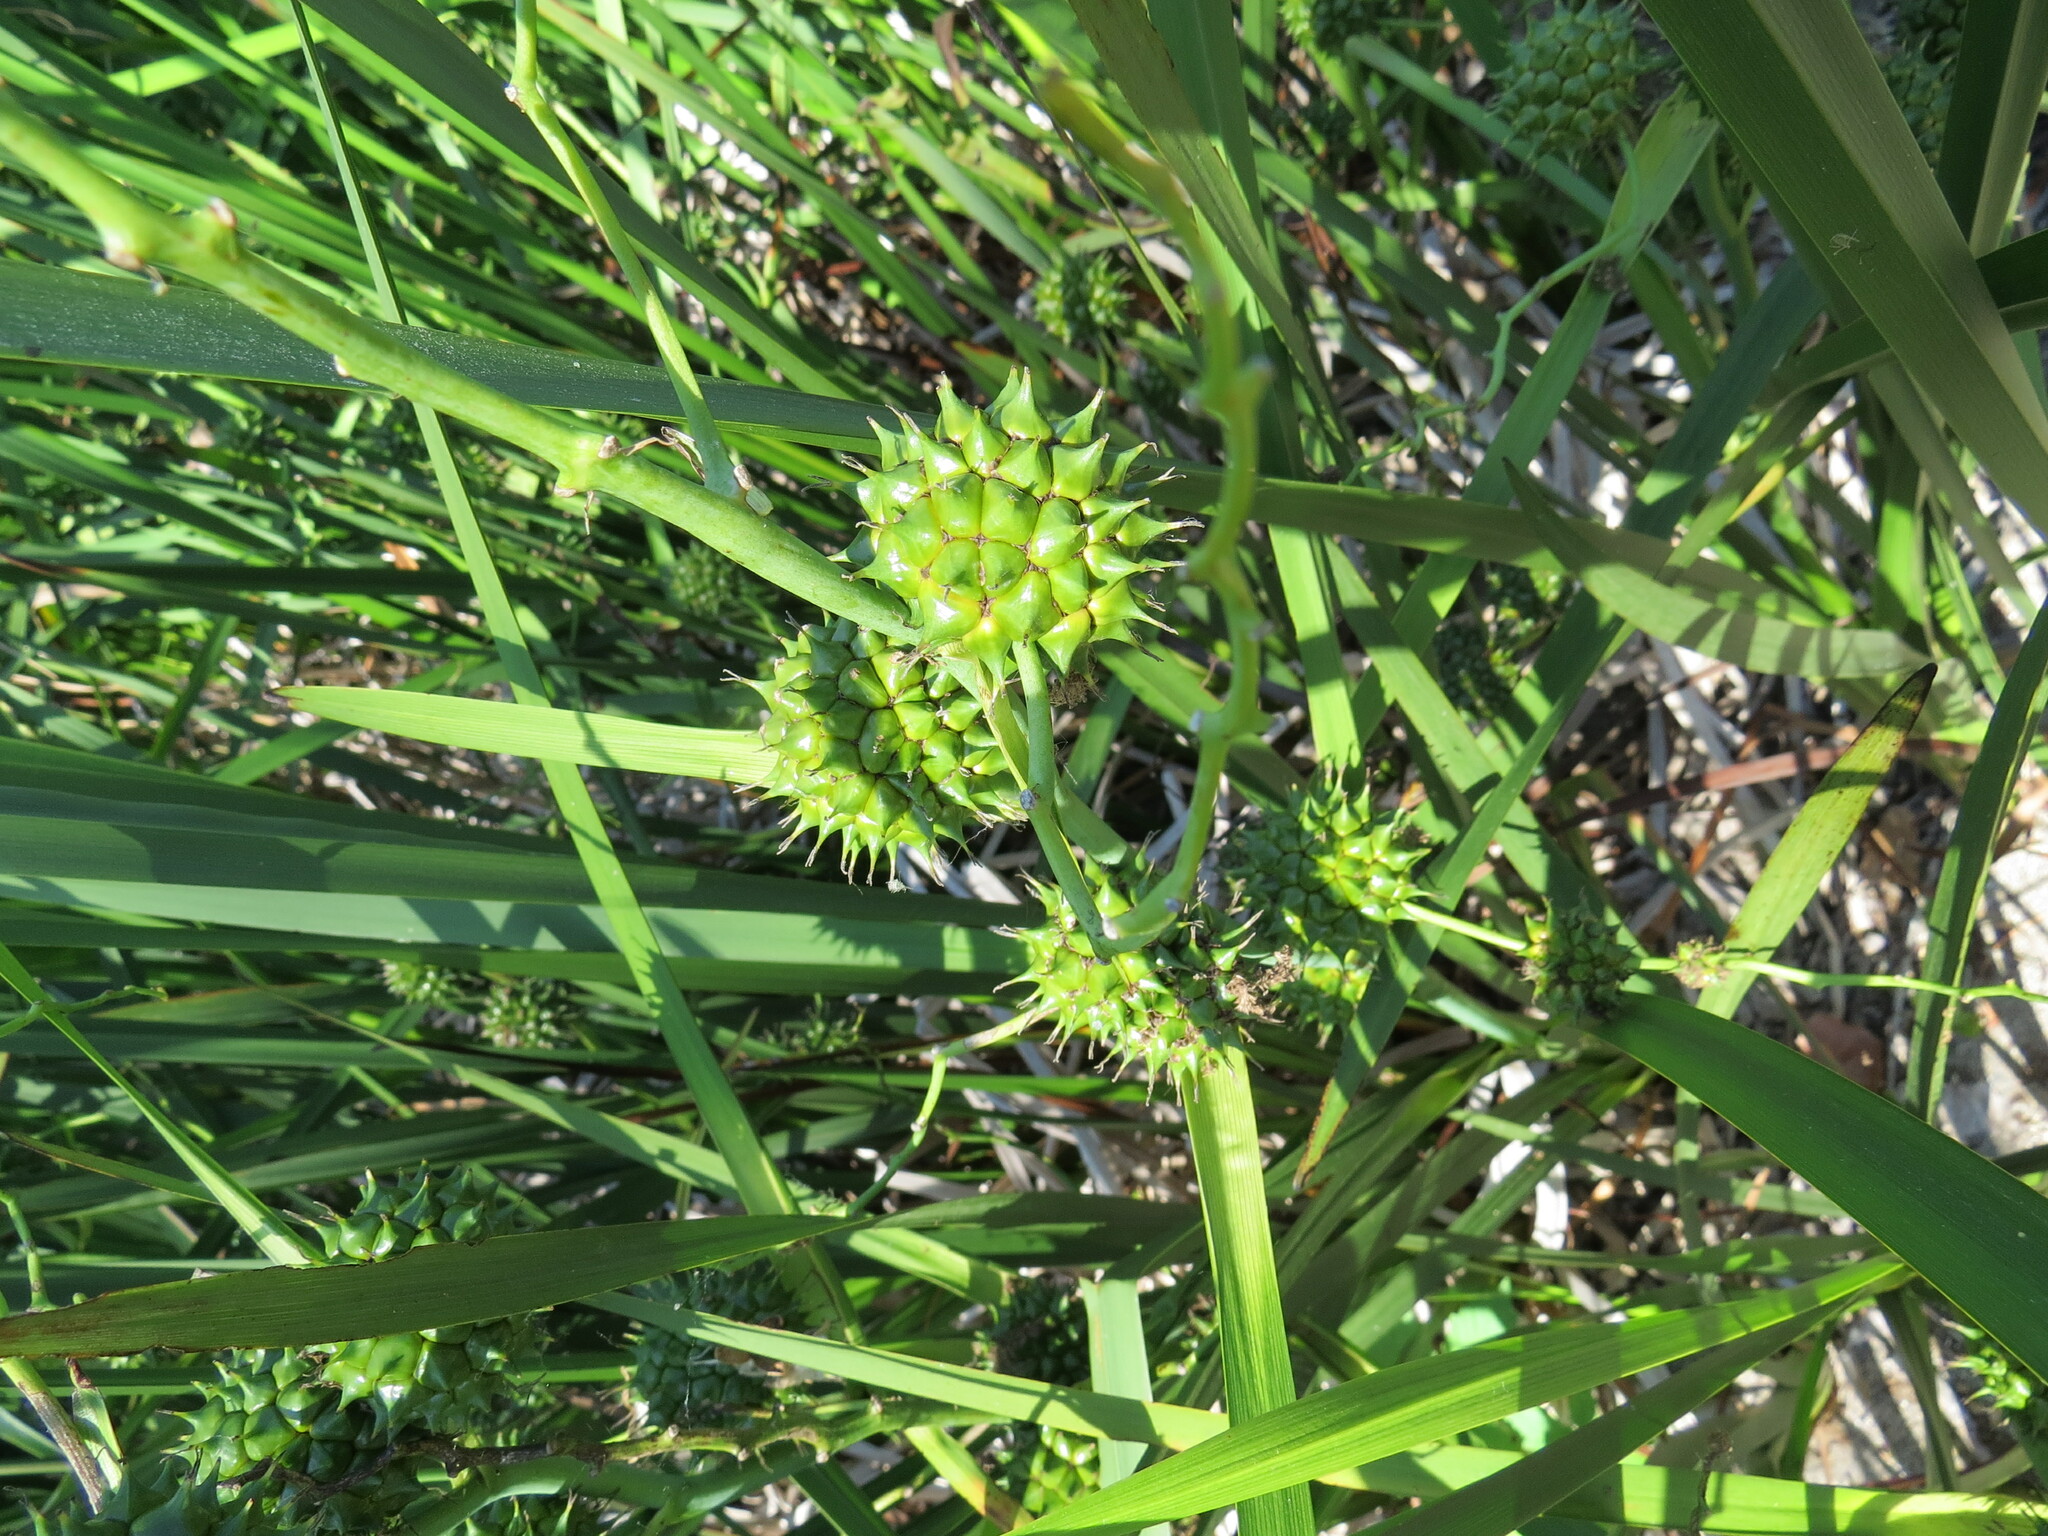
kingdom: Plantae
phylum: Tracheophyta
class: Liliopsida
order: Poales
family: Typhaceae
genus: Sparganium
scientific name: Sparganium eurycarpum
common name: Broad-fruited burreed
